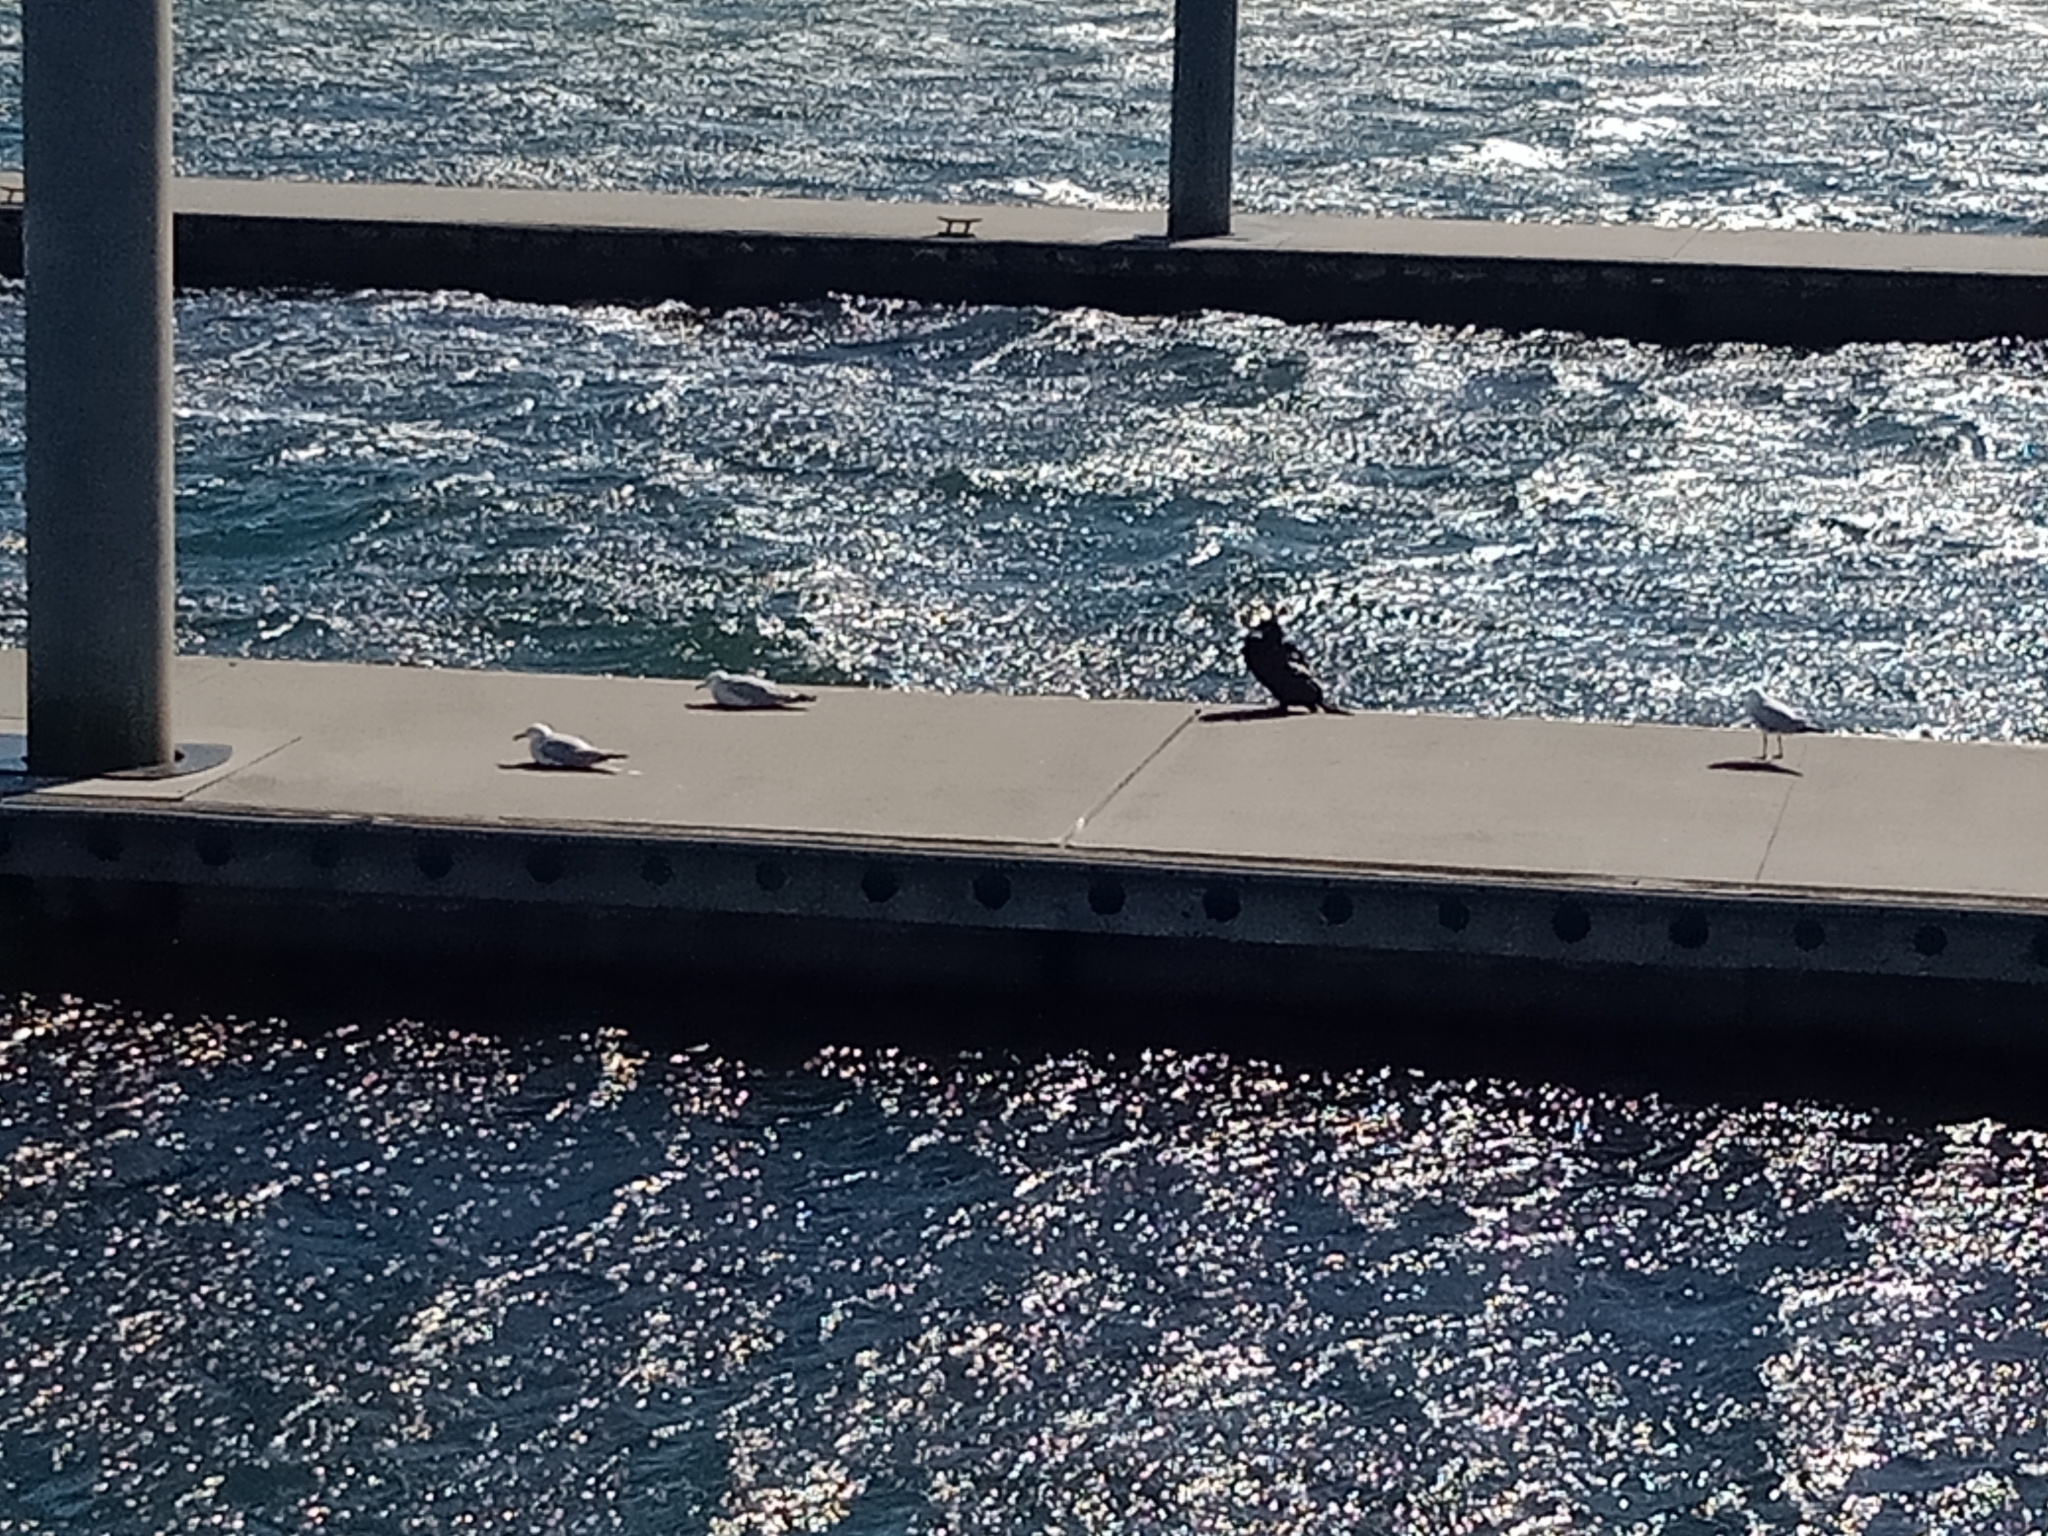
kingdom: Animalia
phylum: Chordata
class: Aves
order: Suliformes
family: Phalacrocoracidae
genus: Phalacrocorax
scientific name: Phalacrocorax sulcirostris
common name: Little black cormorant
